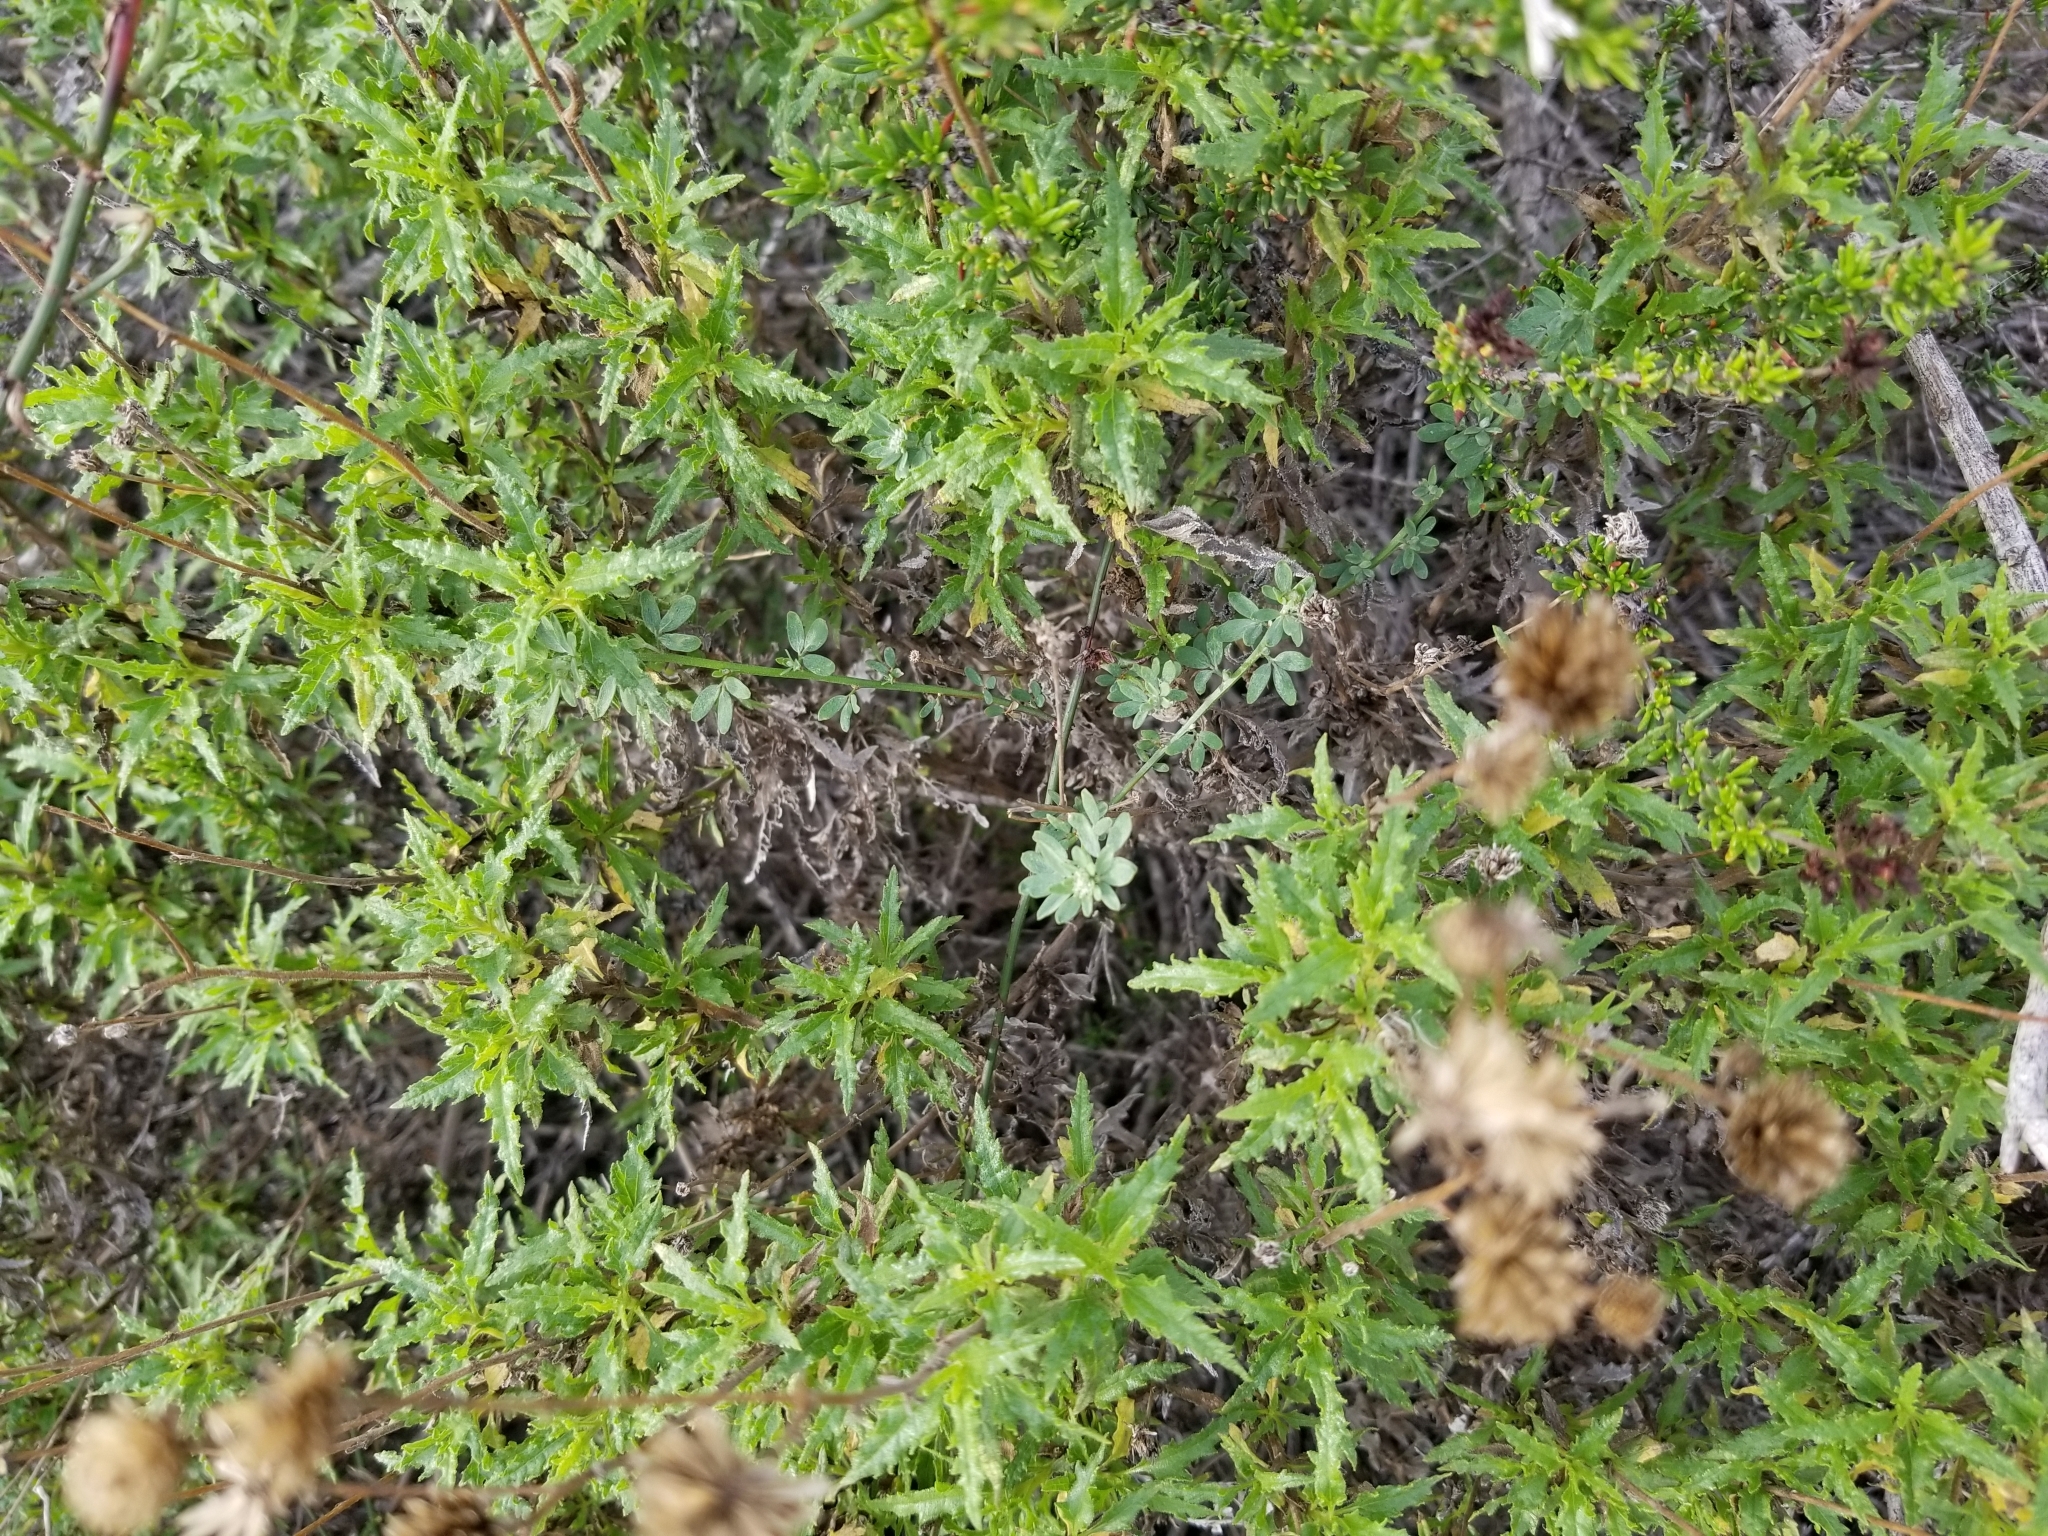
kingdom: Plantae
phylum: Tracheophyta
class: Magnoliopsida
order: Asterales
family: Asteraceae
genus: Bahiopsis
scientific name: Bahiopsis laciniata
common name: San diego county viguiera
